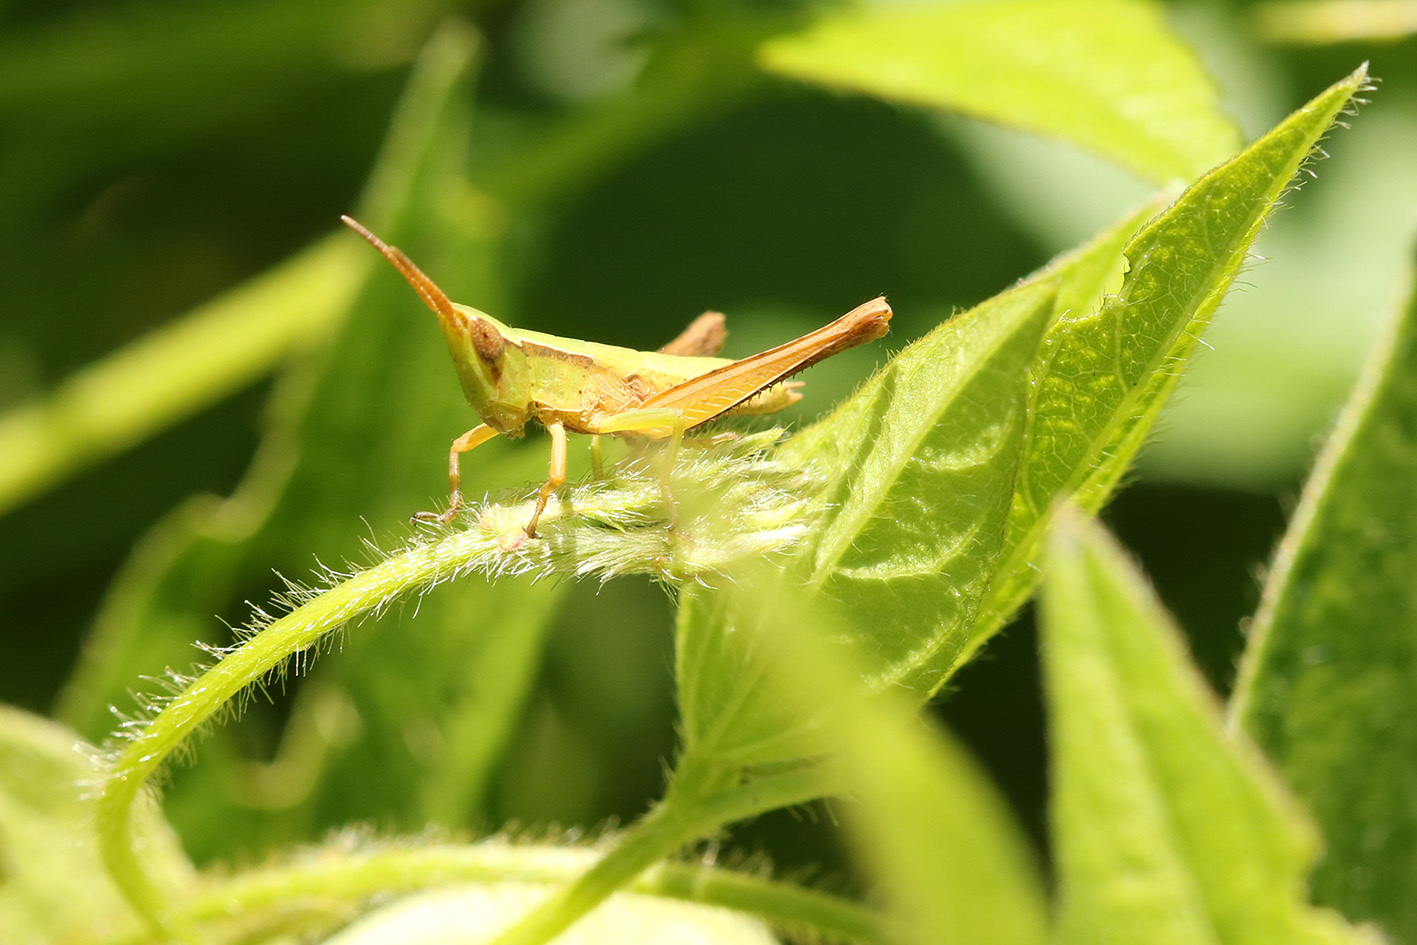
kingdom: Animalia
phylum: Arthropoda
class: Insecta
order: Orthoptera
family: Acrididae
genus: Metaleptea
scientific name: Metaleptea adspersa
